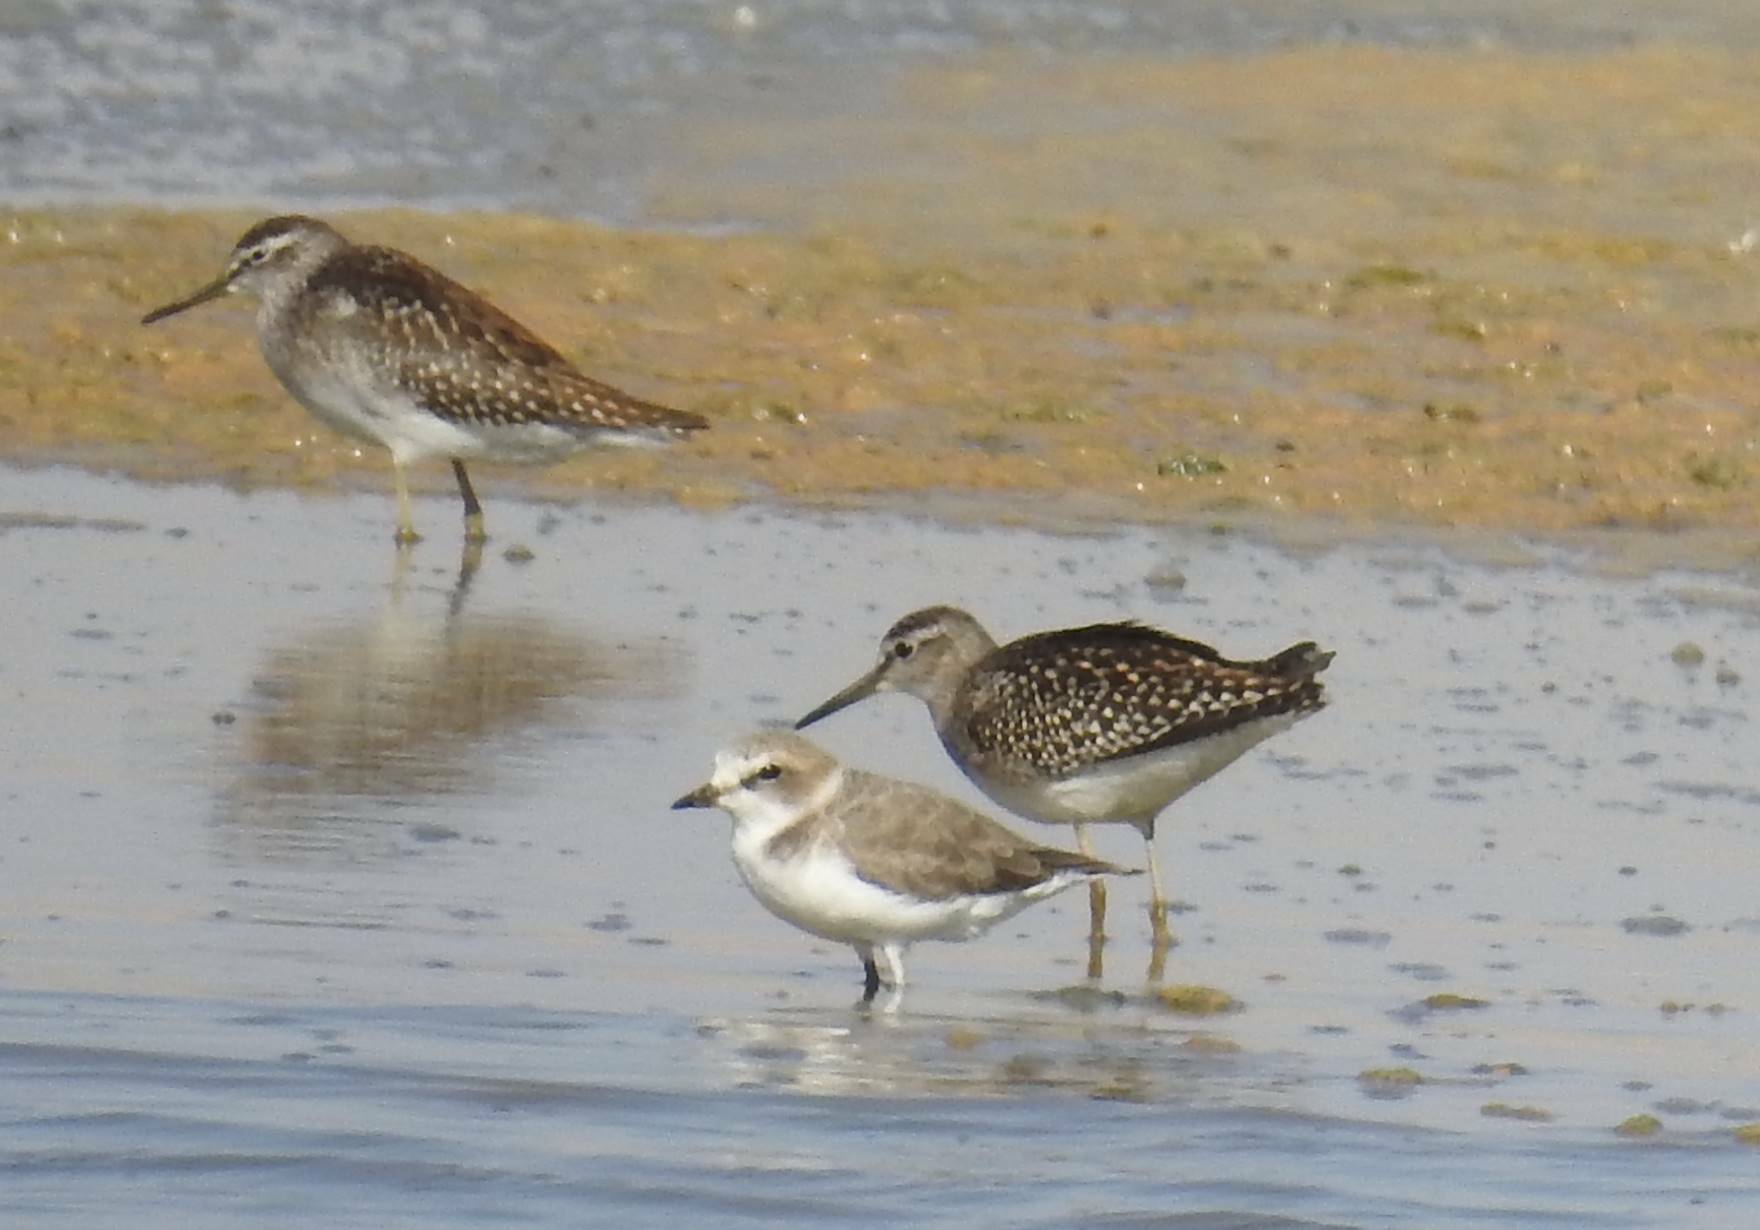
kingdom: Animalia
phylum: Chordata
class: Aves
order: Charadriiformes
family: Scolopacidae
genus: Tringa
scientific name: Tringa glareola
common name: Wood sandpiper
